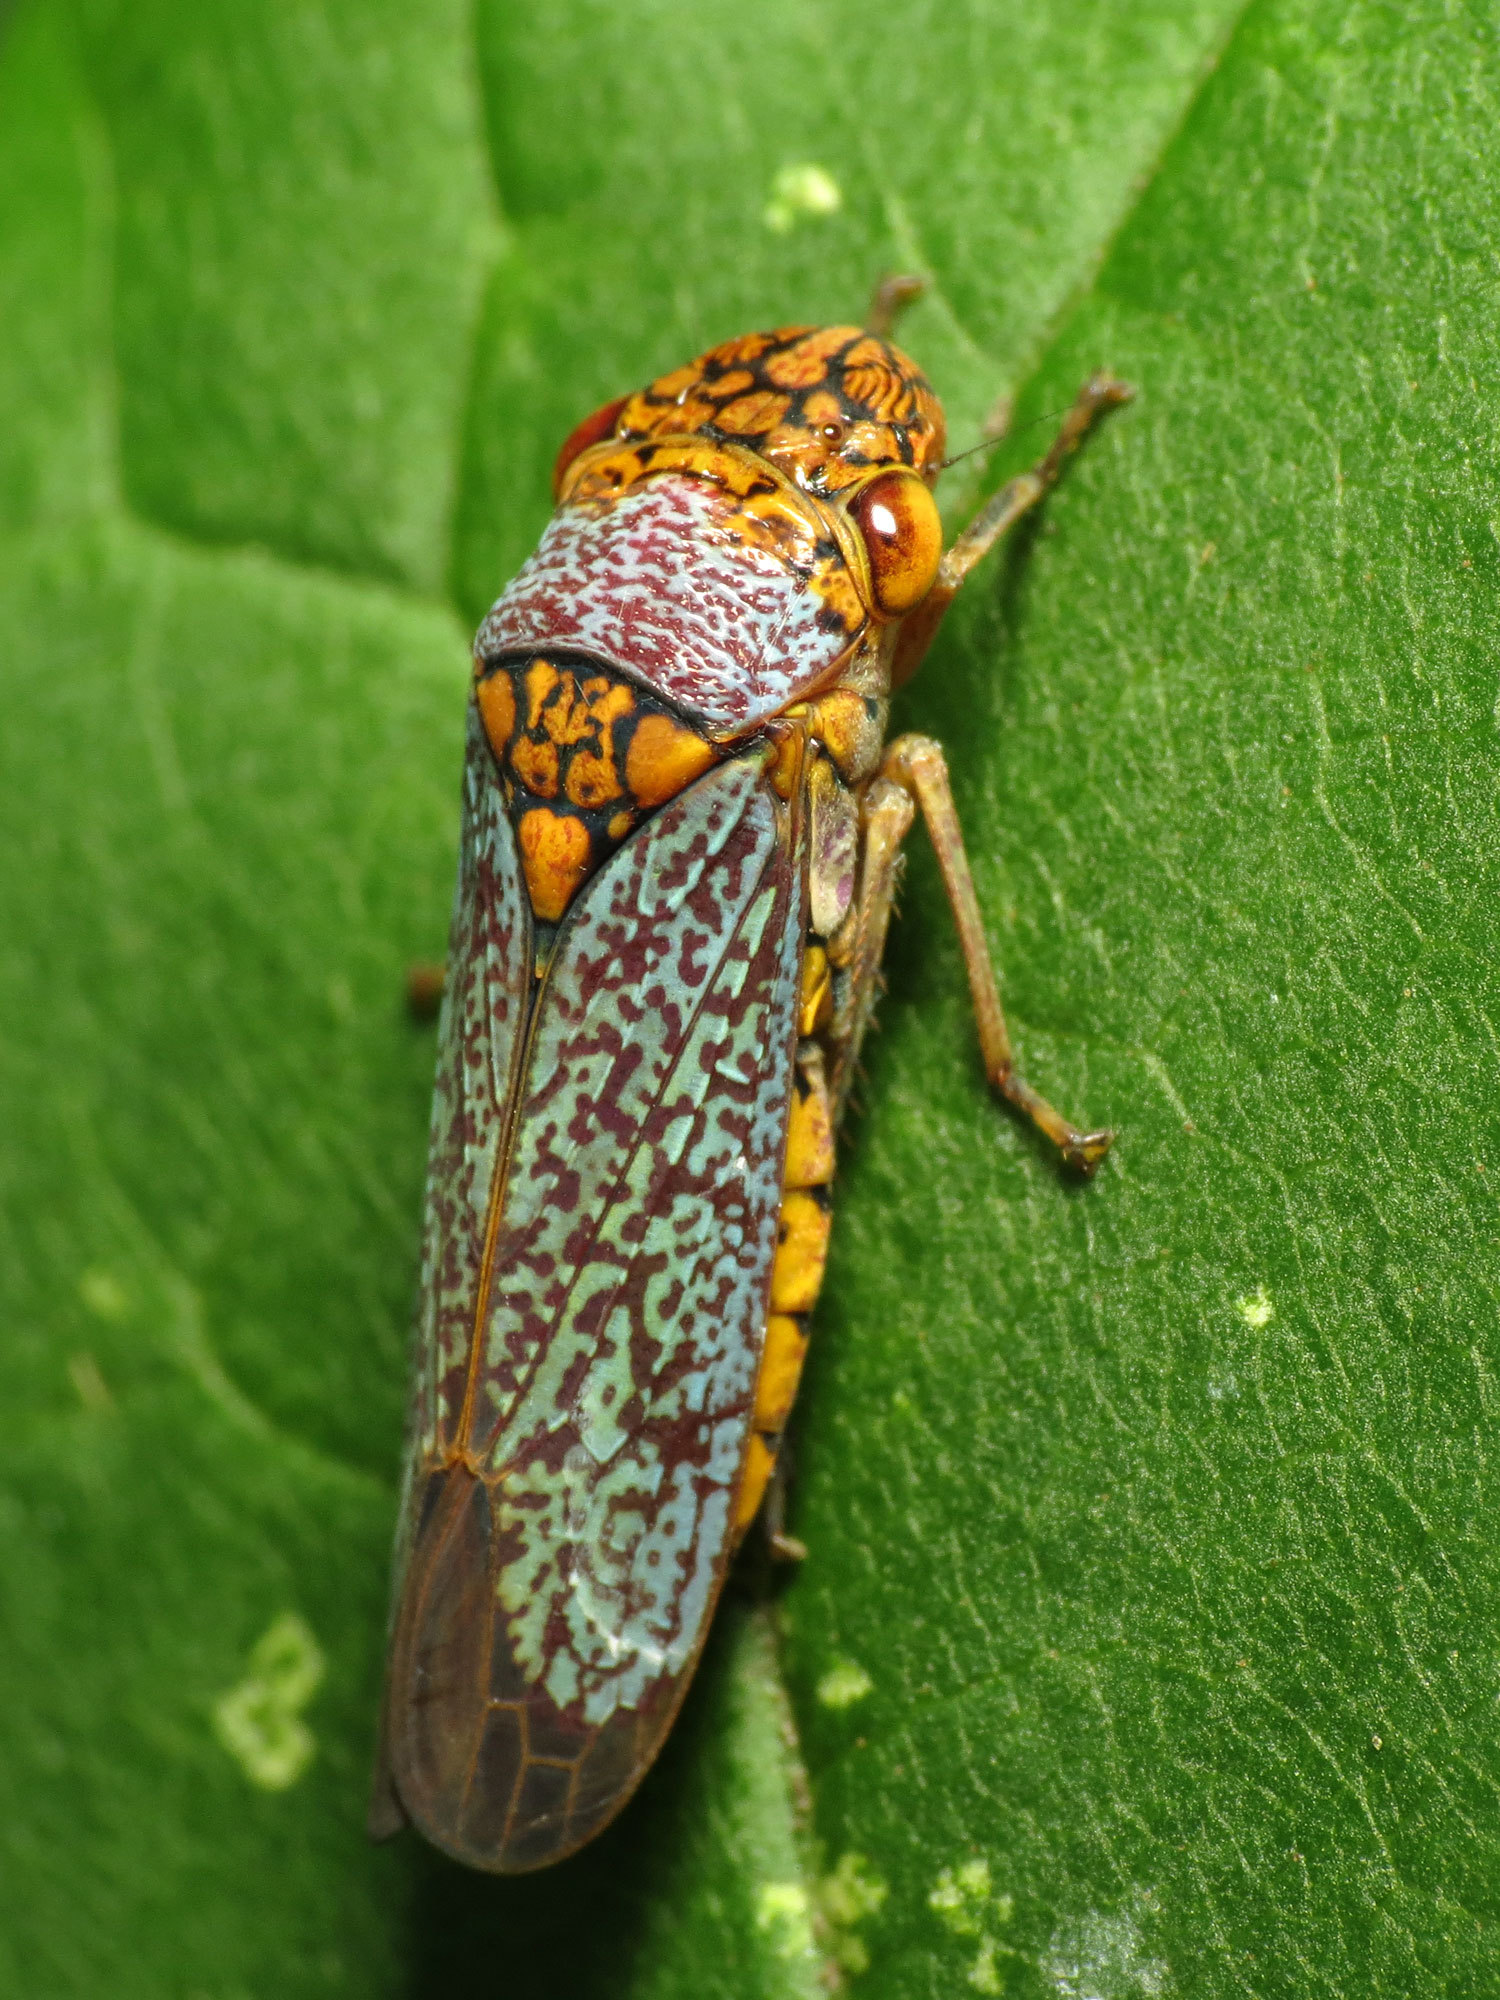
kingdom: Animalia
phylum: Arthropoda
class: Insecta
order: Hemiptera
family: Cicadellidae
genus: Oncometopia
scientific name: Oncometopia orbona
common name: Broad-headed sharpshooter
